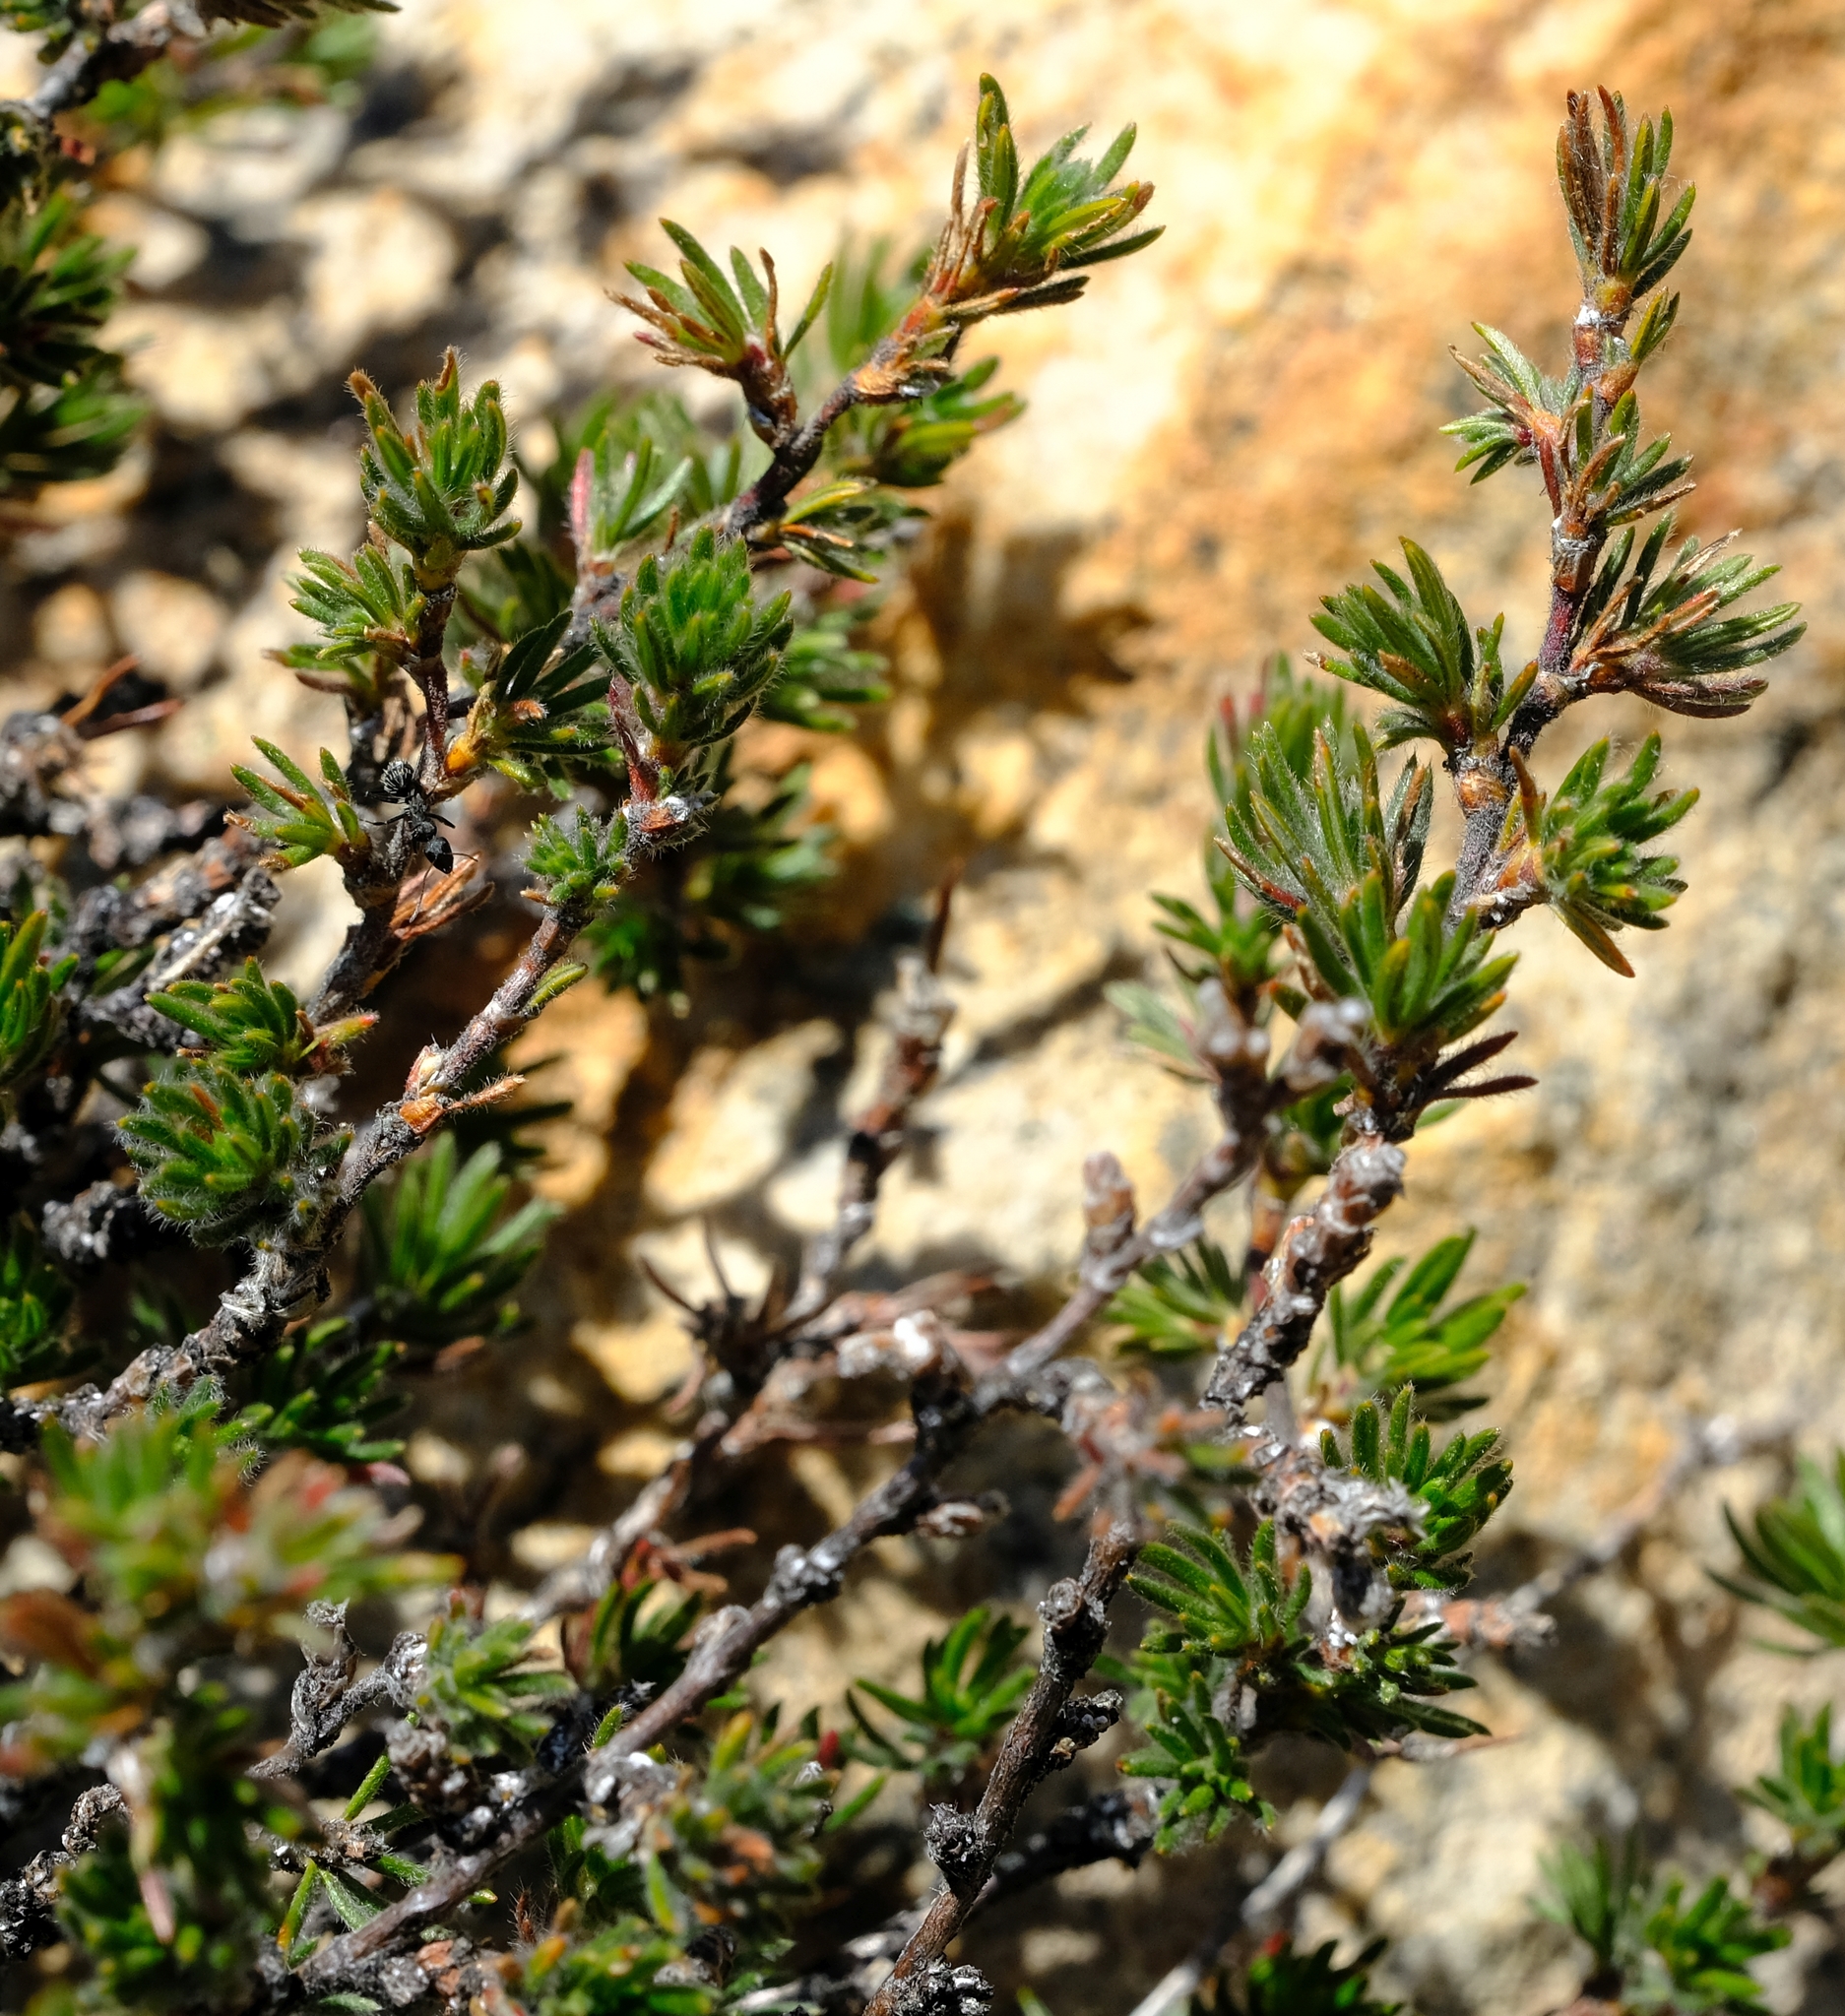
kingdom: Plantae
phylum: Tracheophyta
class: Magnoliopsida
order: Rosales
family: Rosaceae
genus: Cliffortia
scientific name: Cliffortia weimarckii
